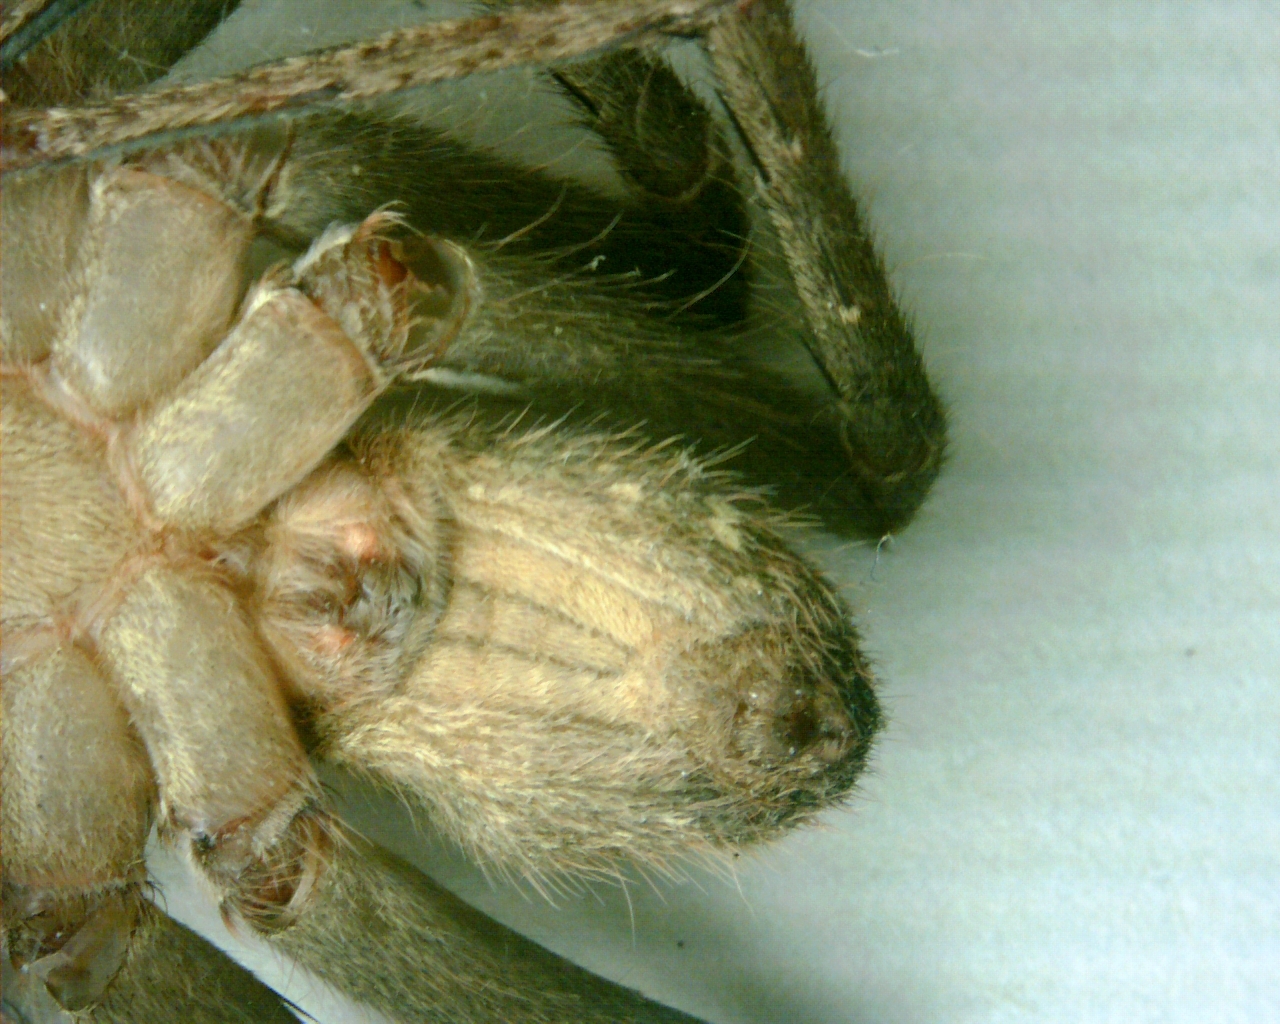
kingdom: Animalia
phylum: Arthropoda
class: Arachnida
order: Araneae
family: Sparassidae
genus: Heteropoda
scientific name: Heteropoda venatoria
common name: Huntsman spider
